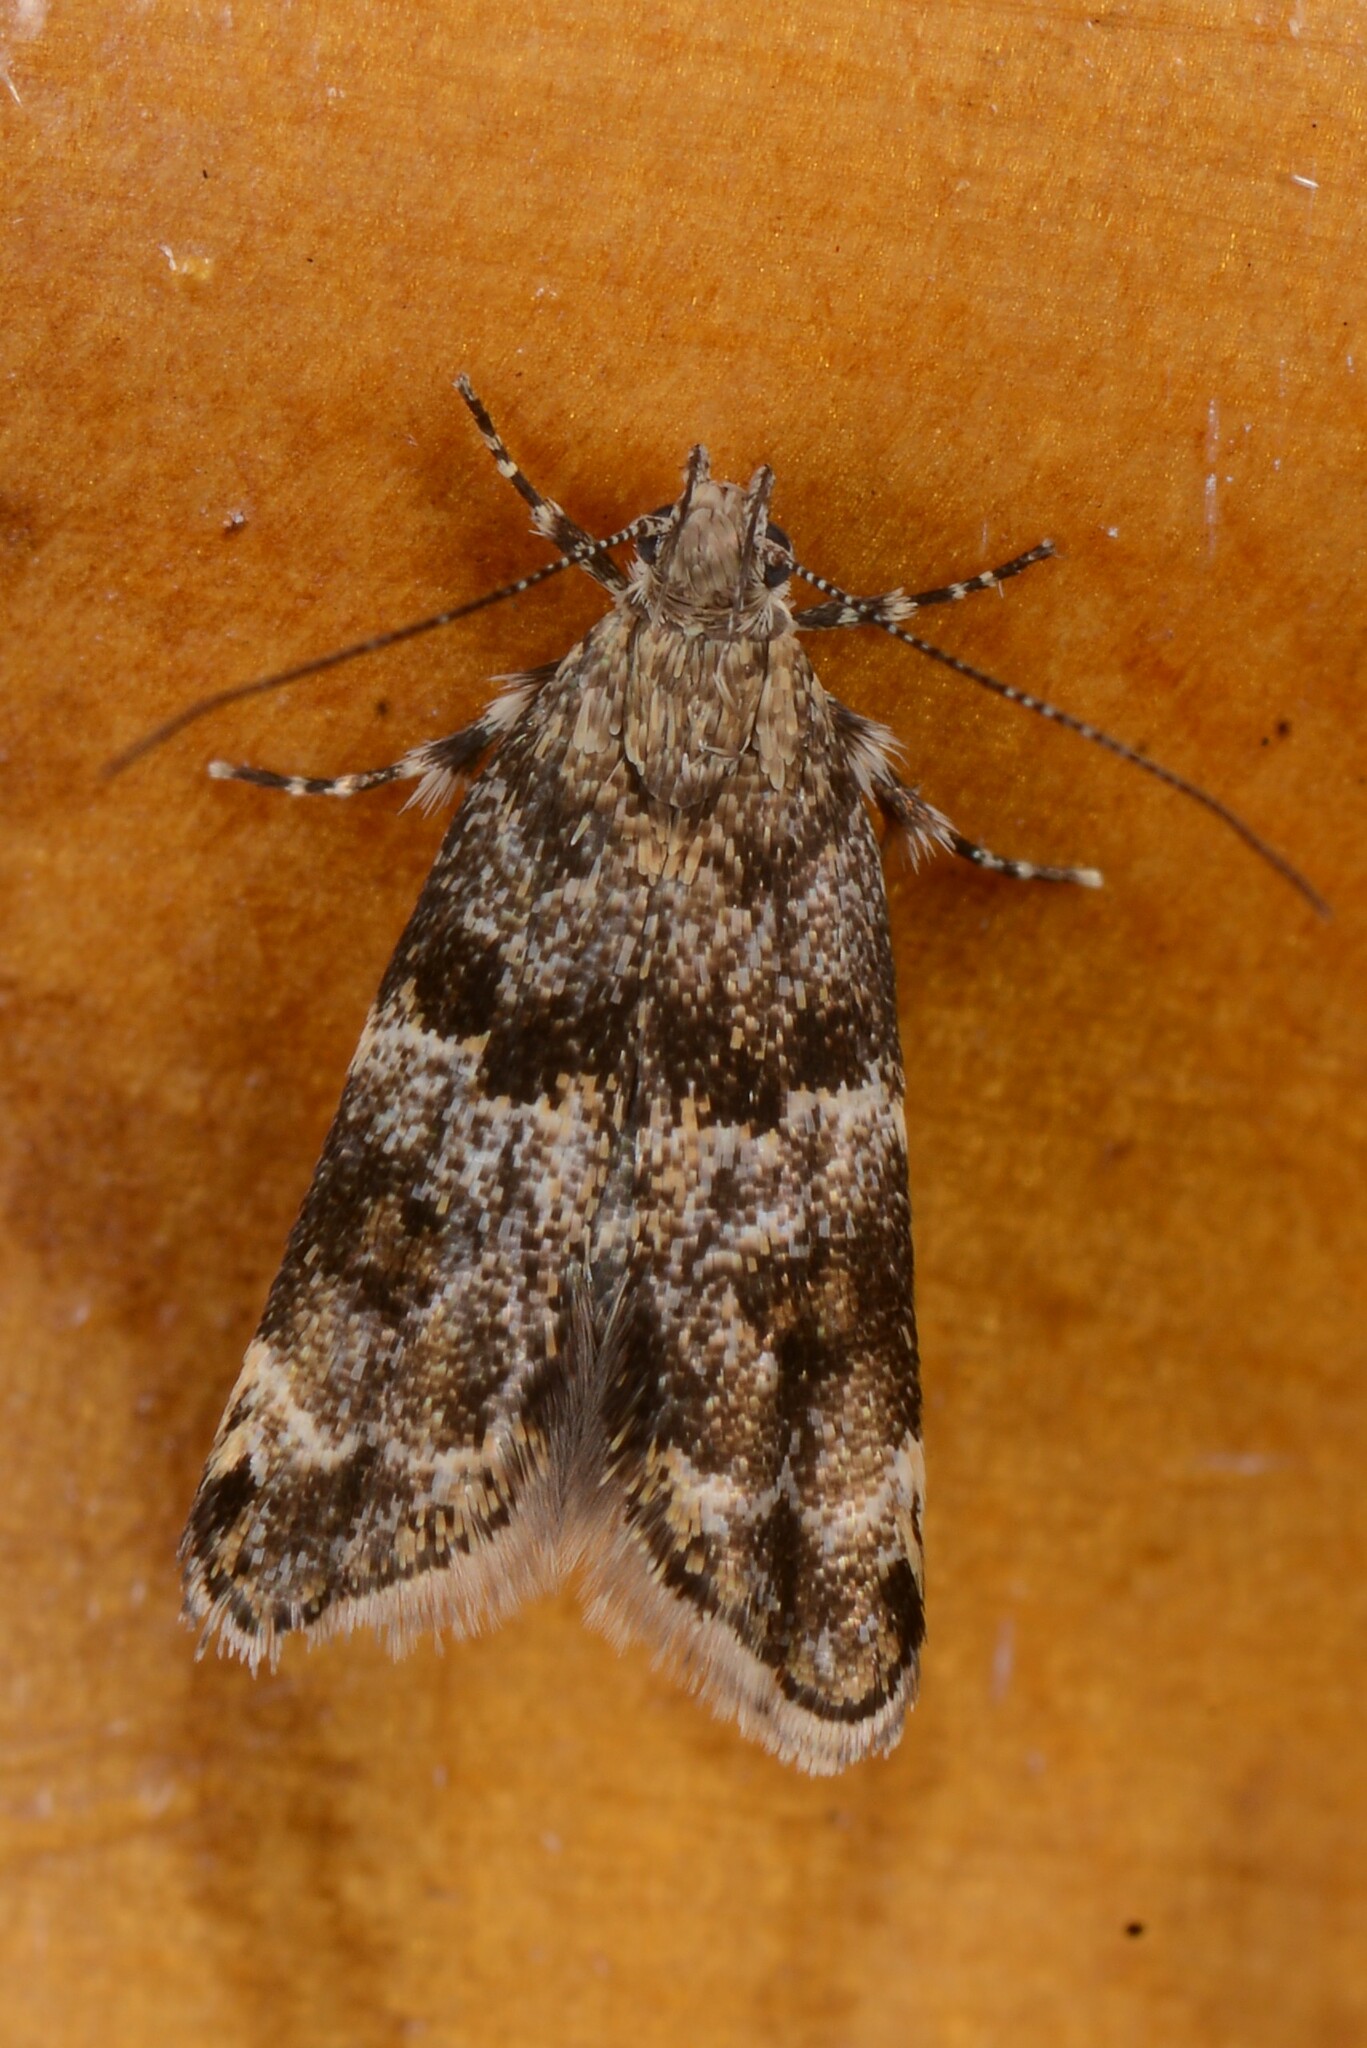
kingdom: Animalia
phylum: Arthropoda
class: Insecta
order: Lepidoptera
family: Oecophoridae
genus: Gymnobathra
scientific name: Gymnobathra omphalota
